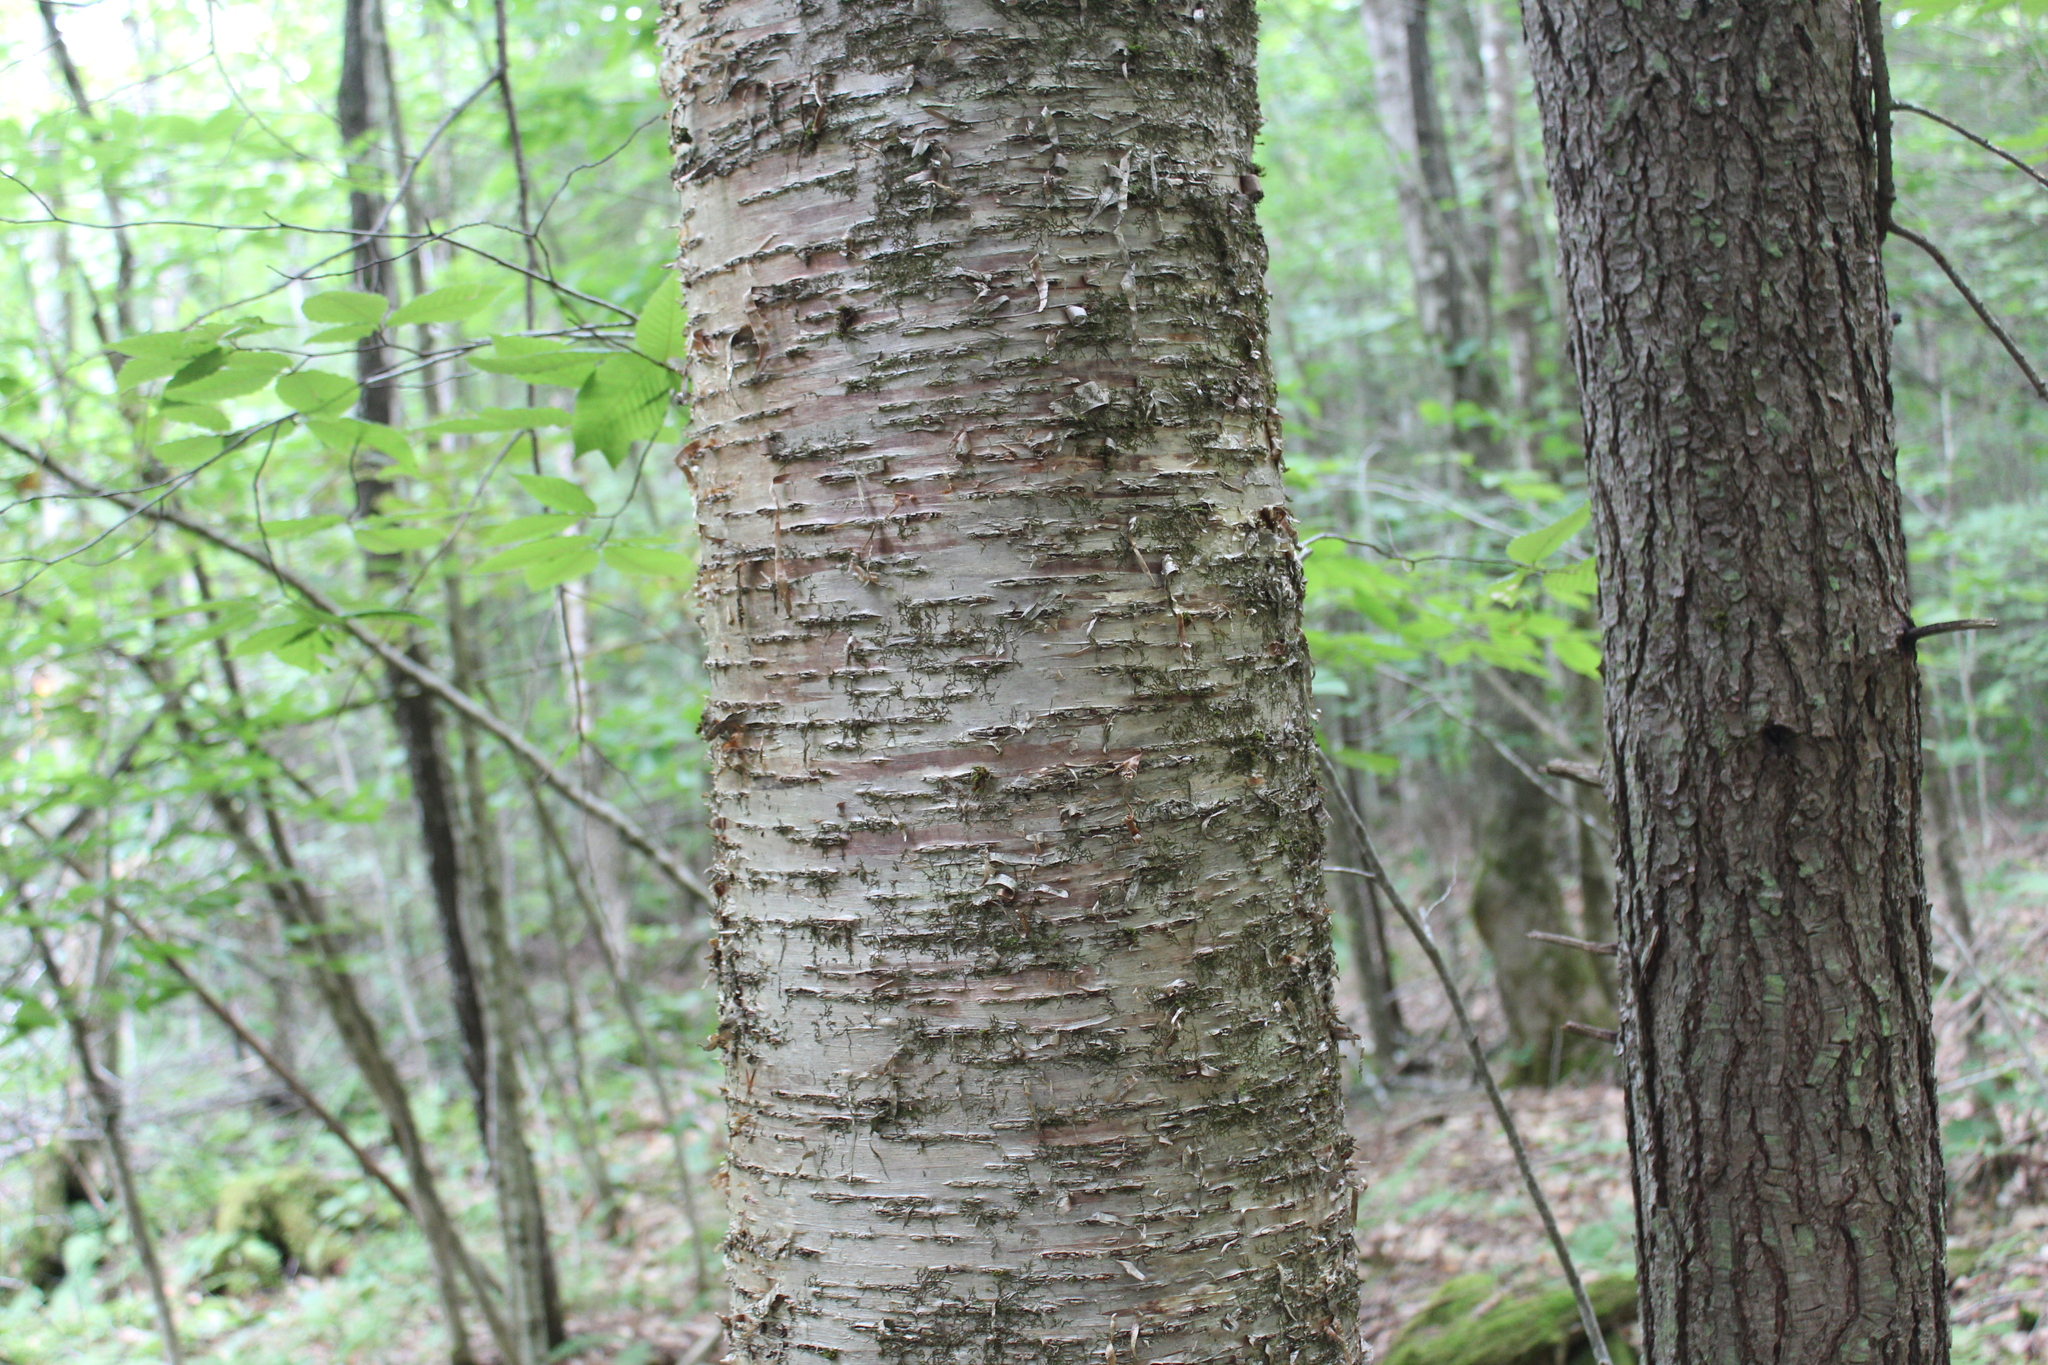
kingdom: Plantae
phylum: Tracheophyta
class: Magnoliopsida
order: Fagales
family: Betulaceae
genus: Betula
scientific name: Betula alleghaniensis
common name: Yellow birch
